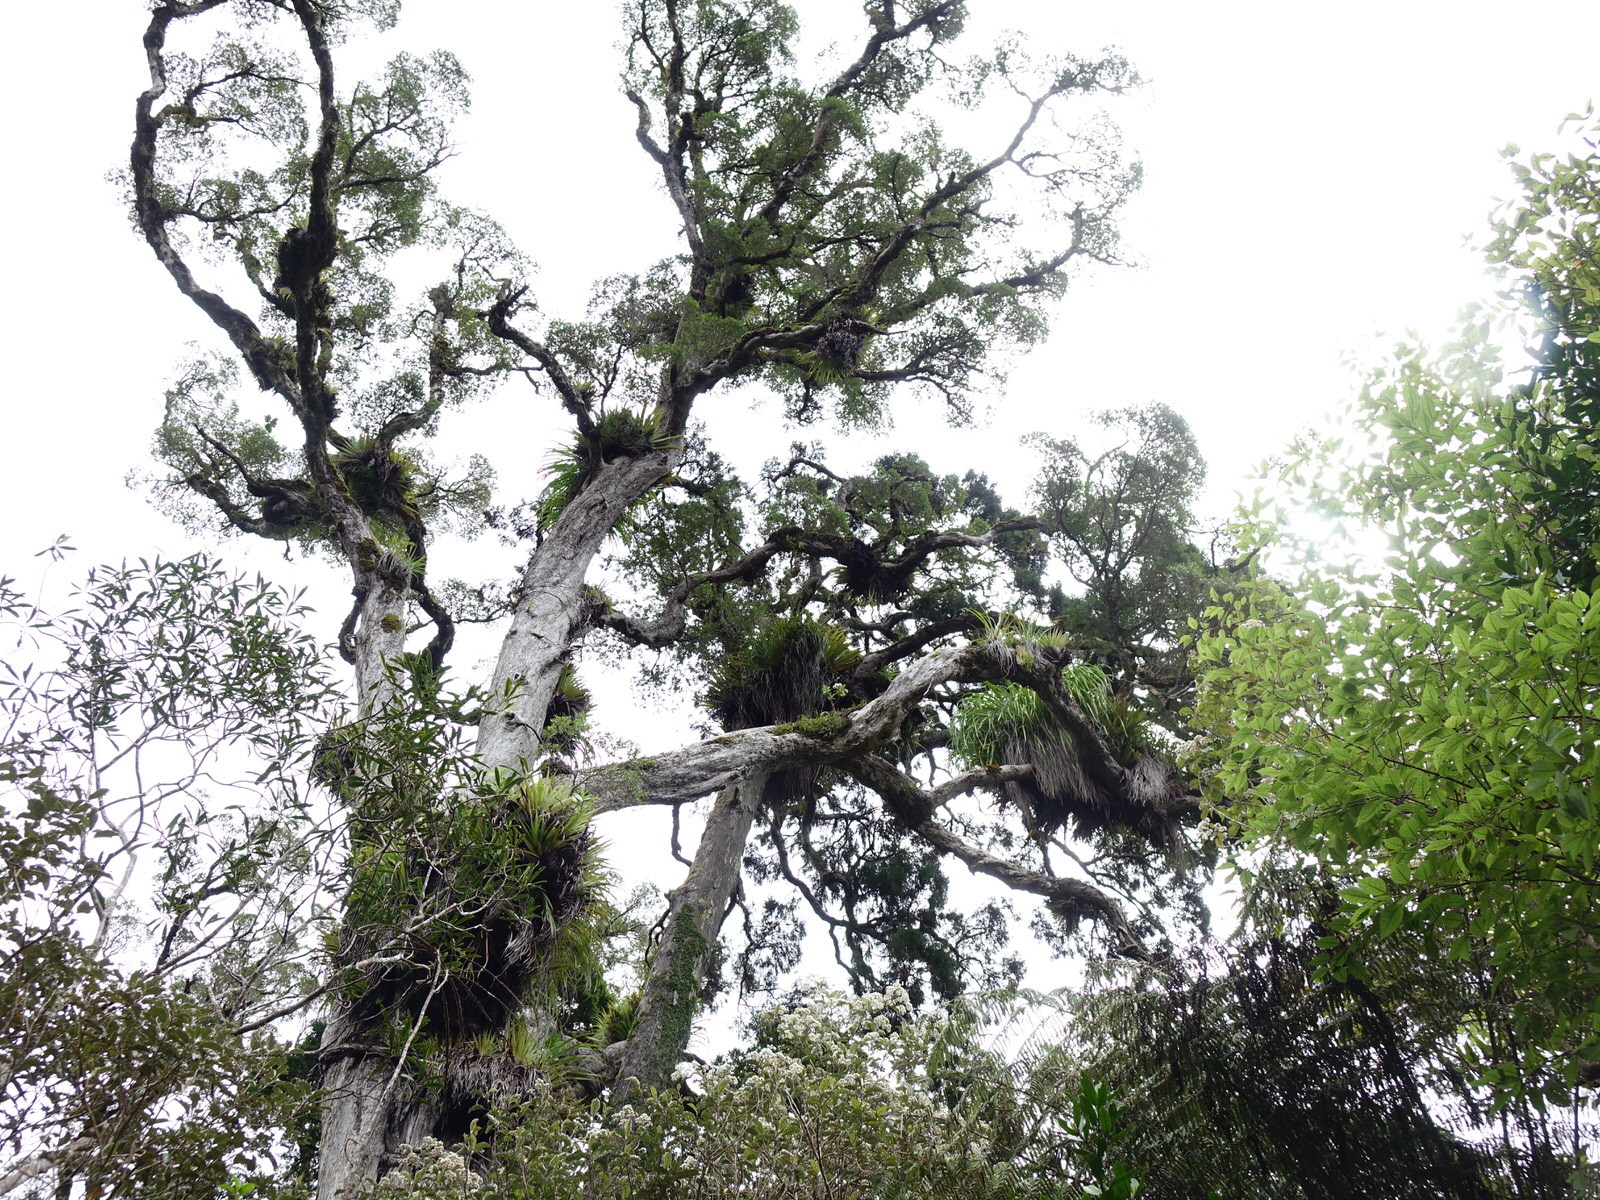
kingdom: Plantae
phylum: Tracheophyta
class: Magnoliopsida
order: Asterales
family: Asteraceae
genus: Brachyglottis
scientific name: Brachyglottis kirkii
